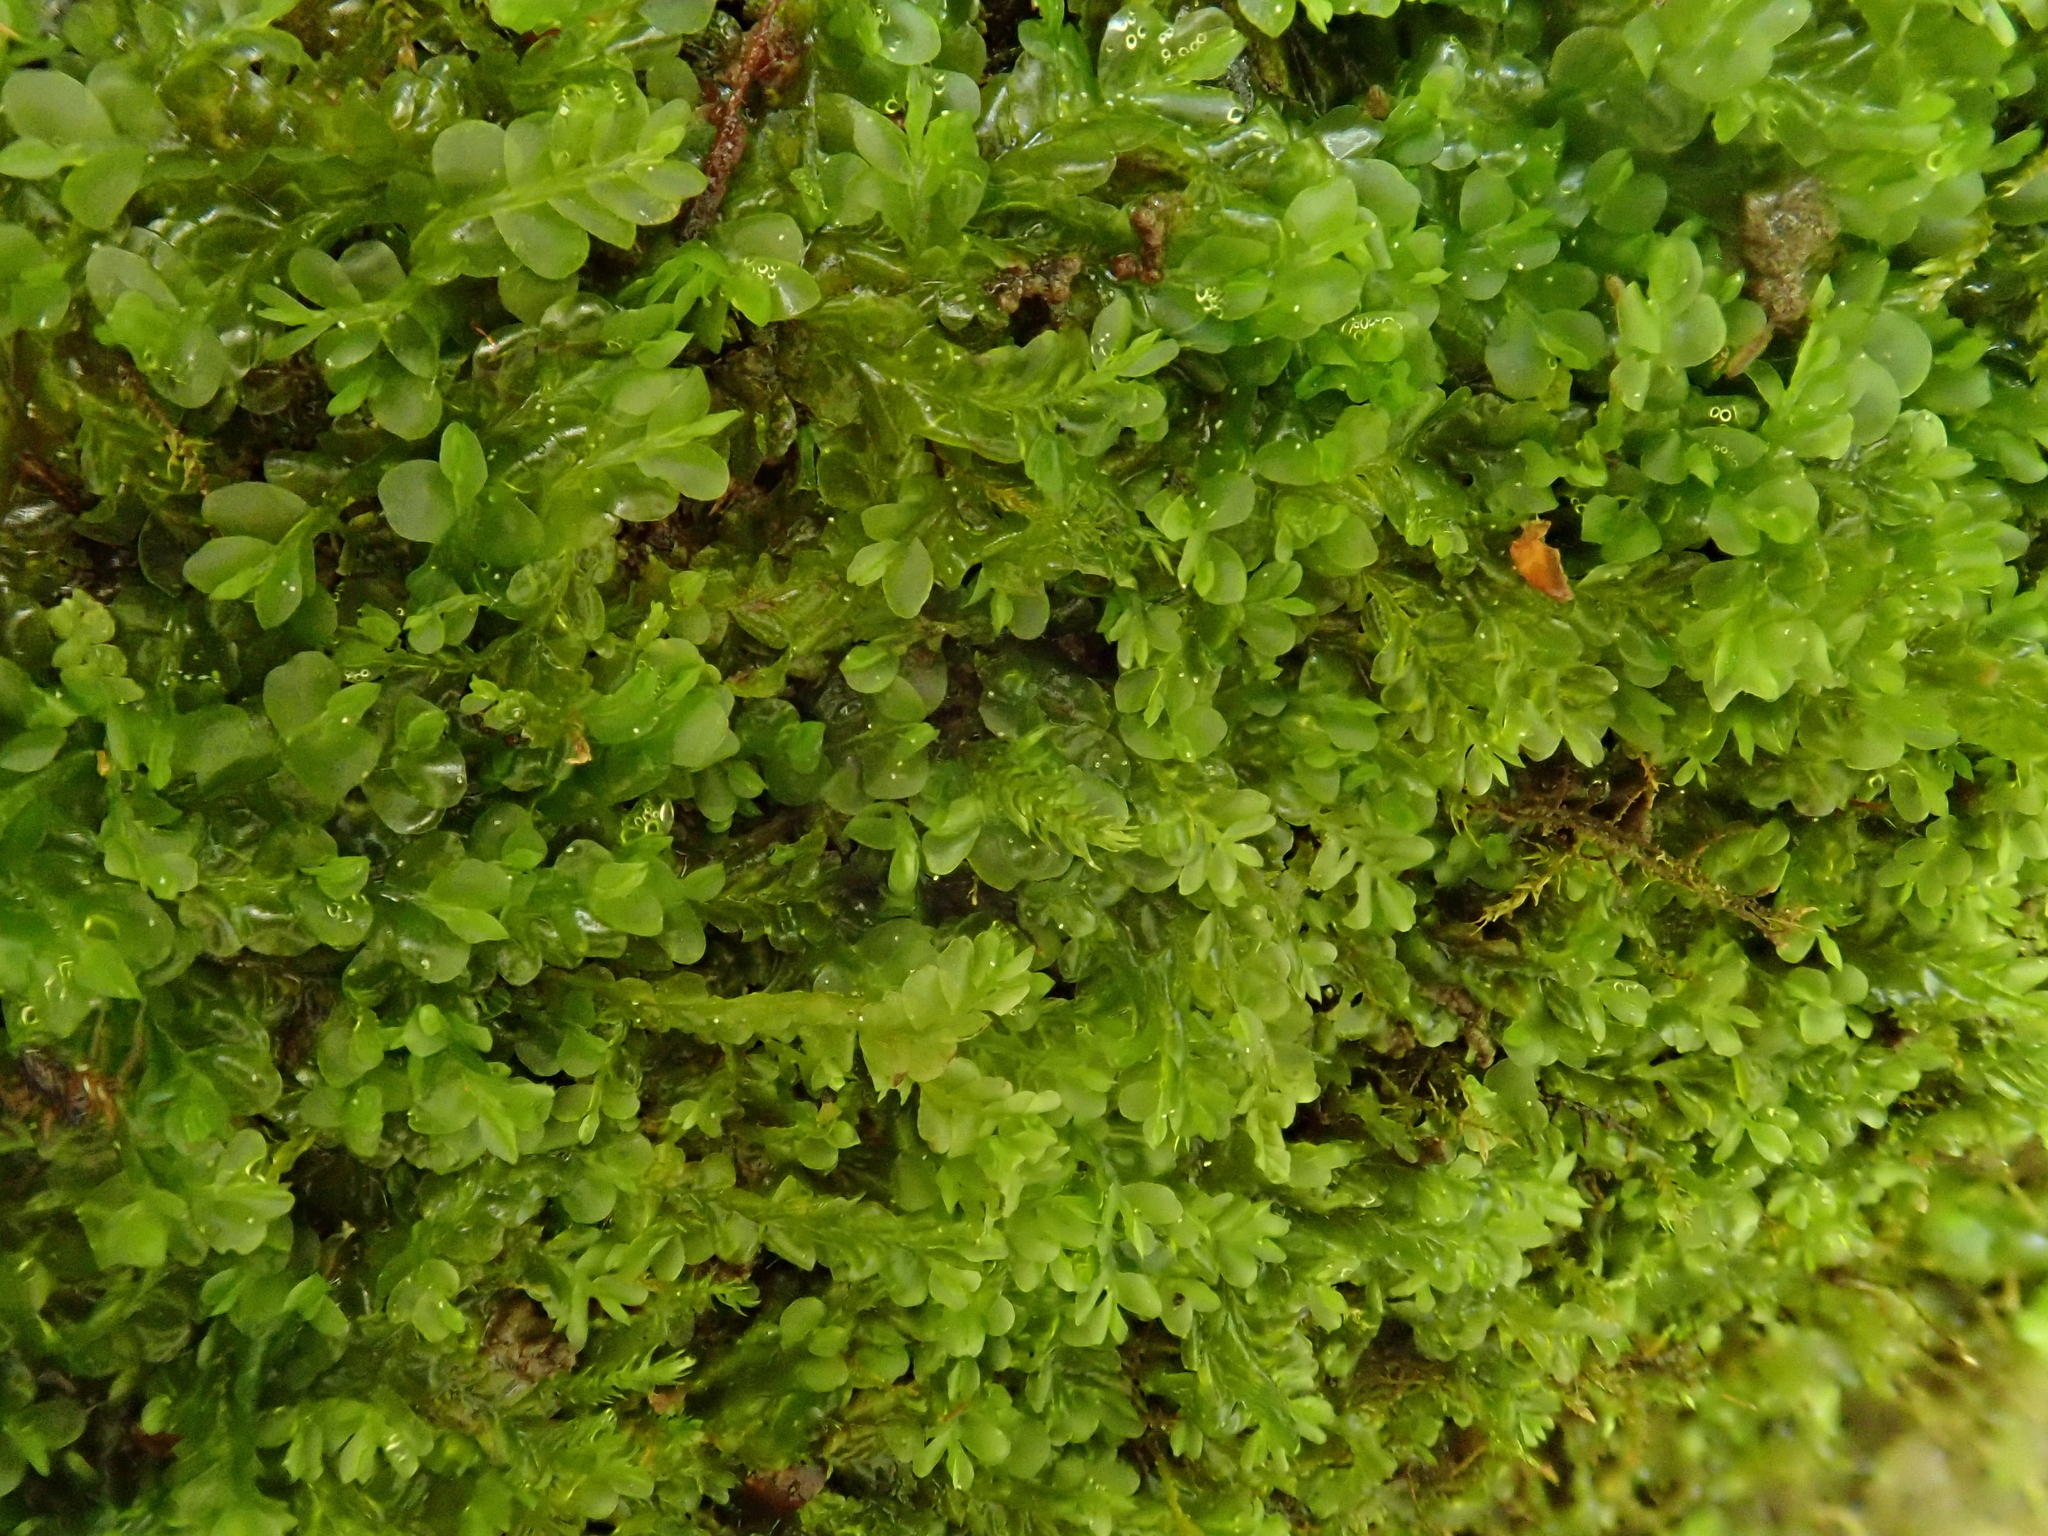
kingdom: Plantae
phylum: Marchantiophyta
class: Jungermanniopsida
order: Jungermanniales
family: Lophocoleaceae
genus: Chiloscyphus
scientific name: Chiloscyphus polyanthos
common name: Square-leaved crestwort
